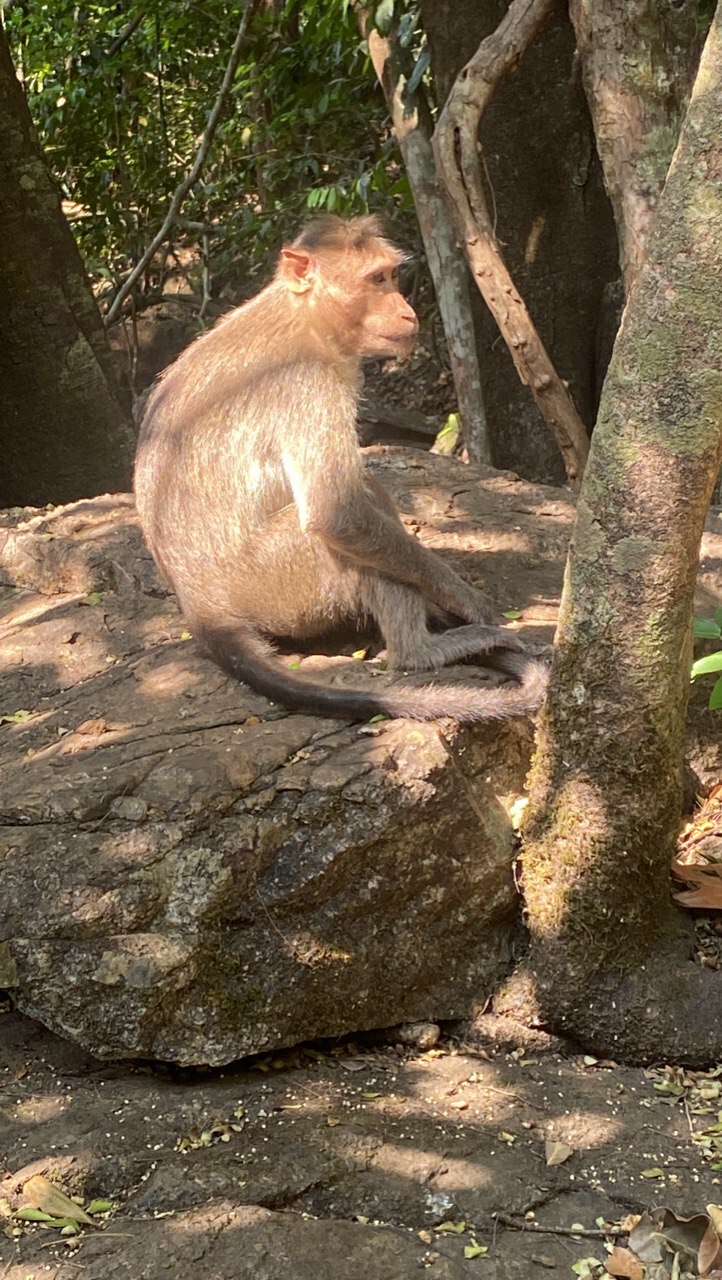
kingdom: Animalia
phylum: Chordata
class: Mammalia
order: Primates
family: Cercopithecidae
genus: Macaca
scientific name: Macaca radiata
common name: Bonnet macaque
